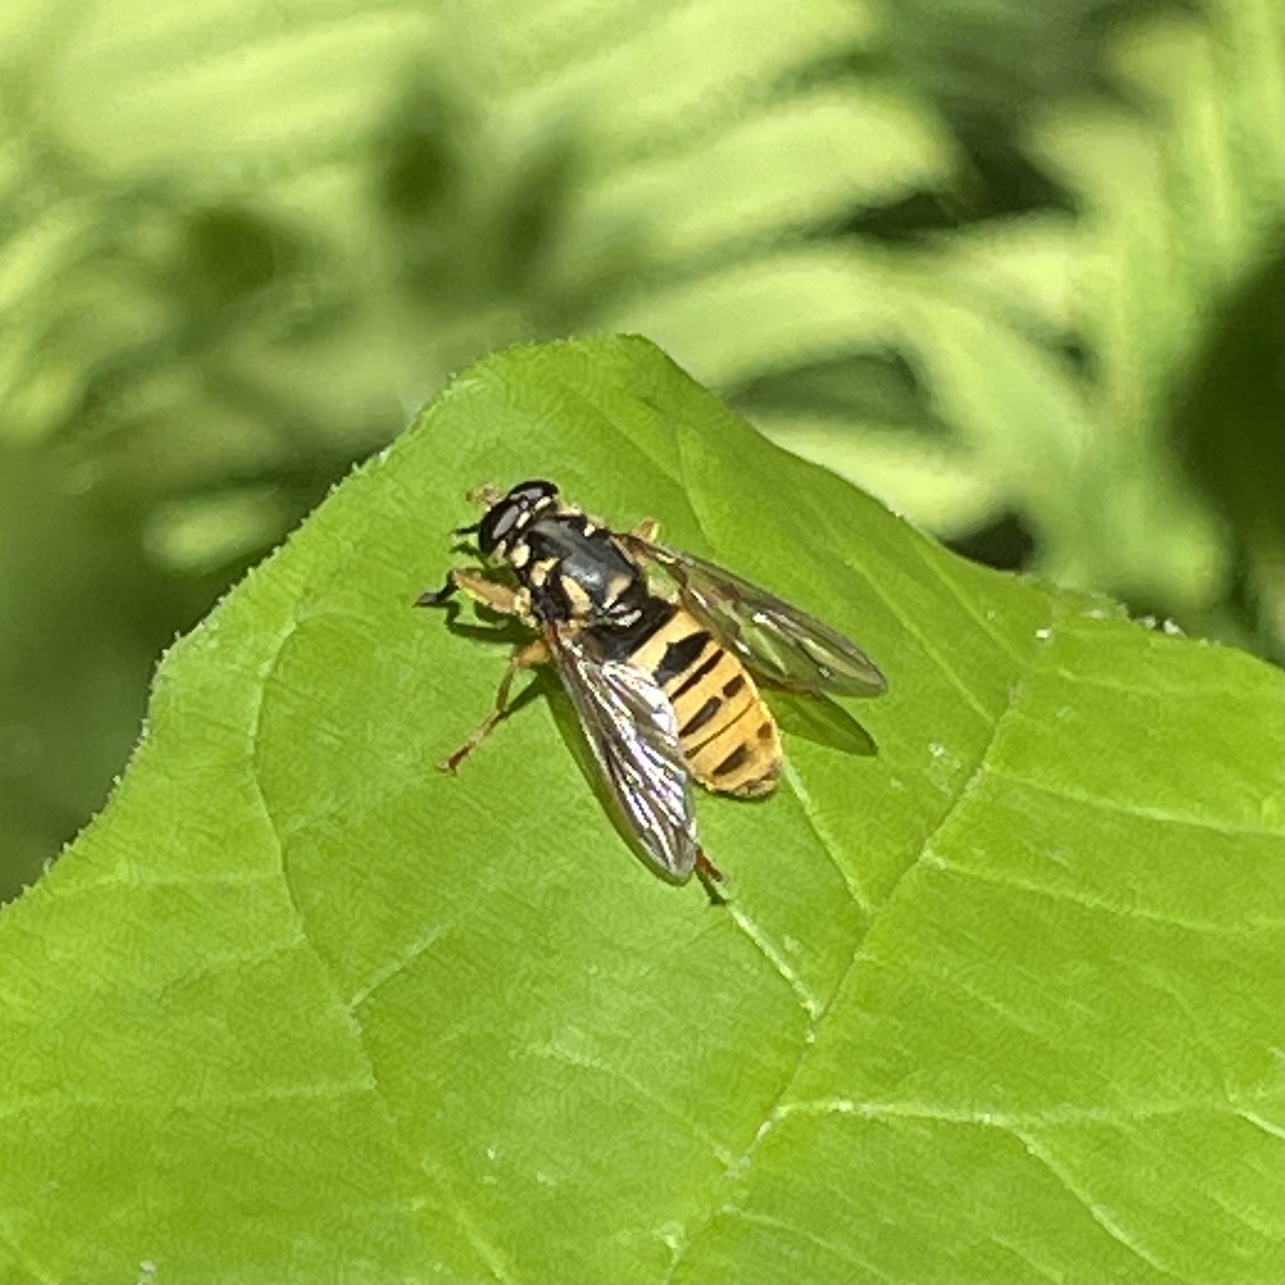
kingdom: Animalia
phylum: Arthropoda
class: Insecta
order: Diptera
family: Syrphidae
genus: Temnostoma
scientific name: Temnostoma excentricum
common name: Black-spotted falsehorn
